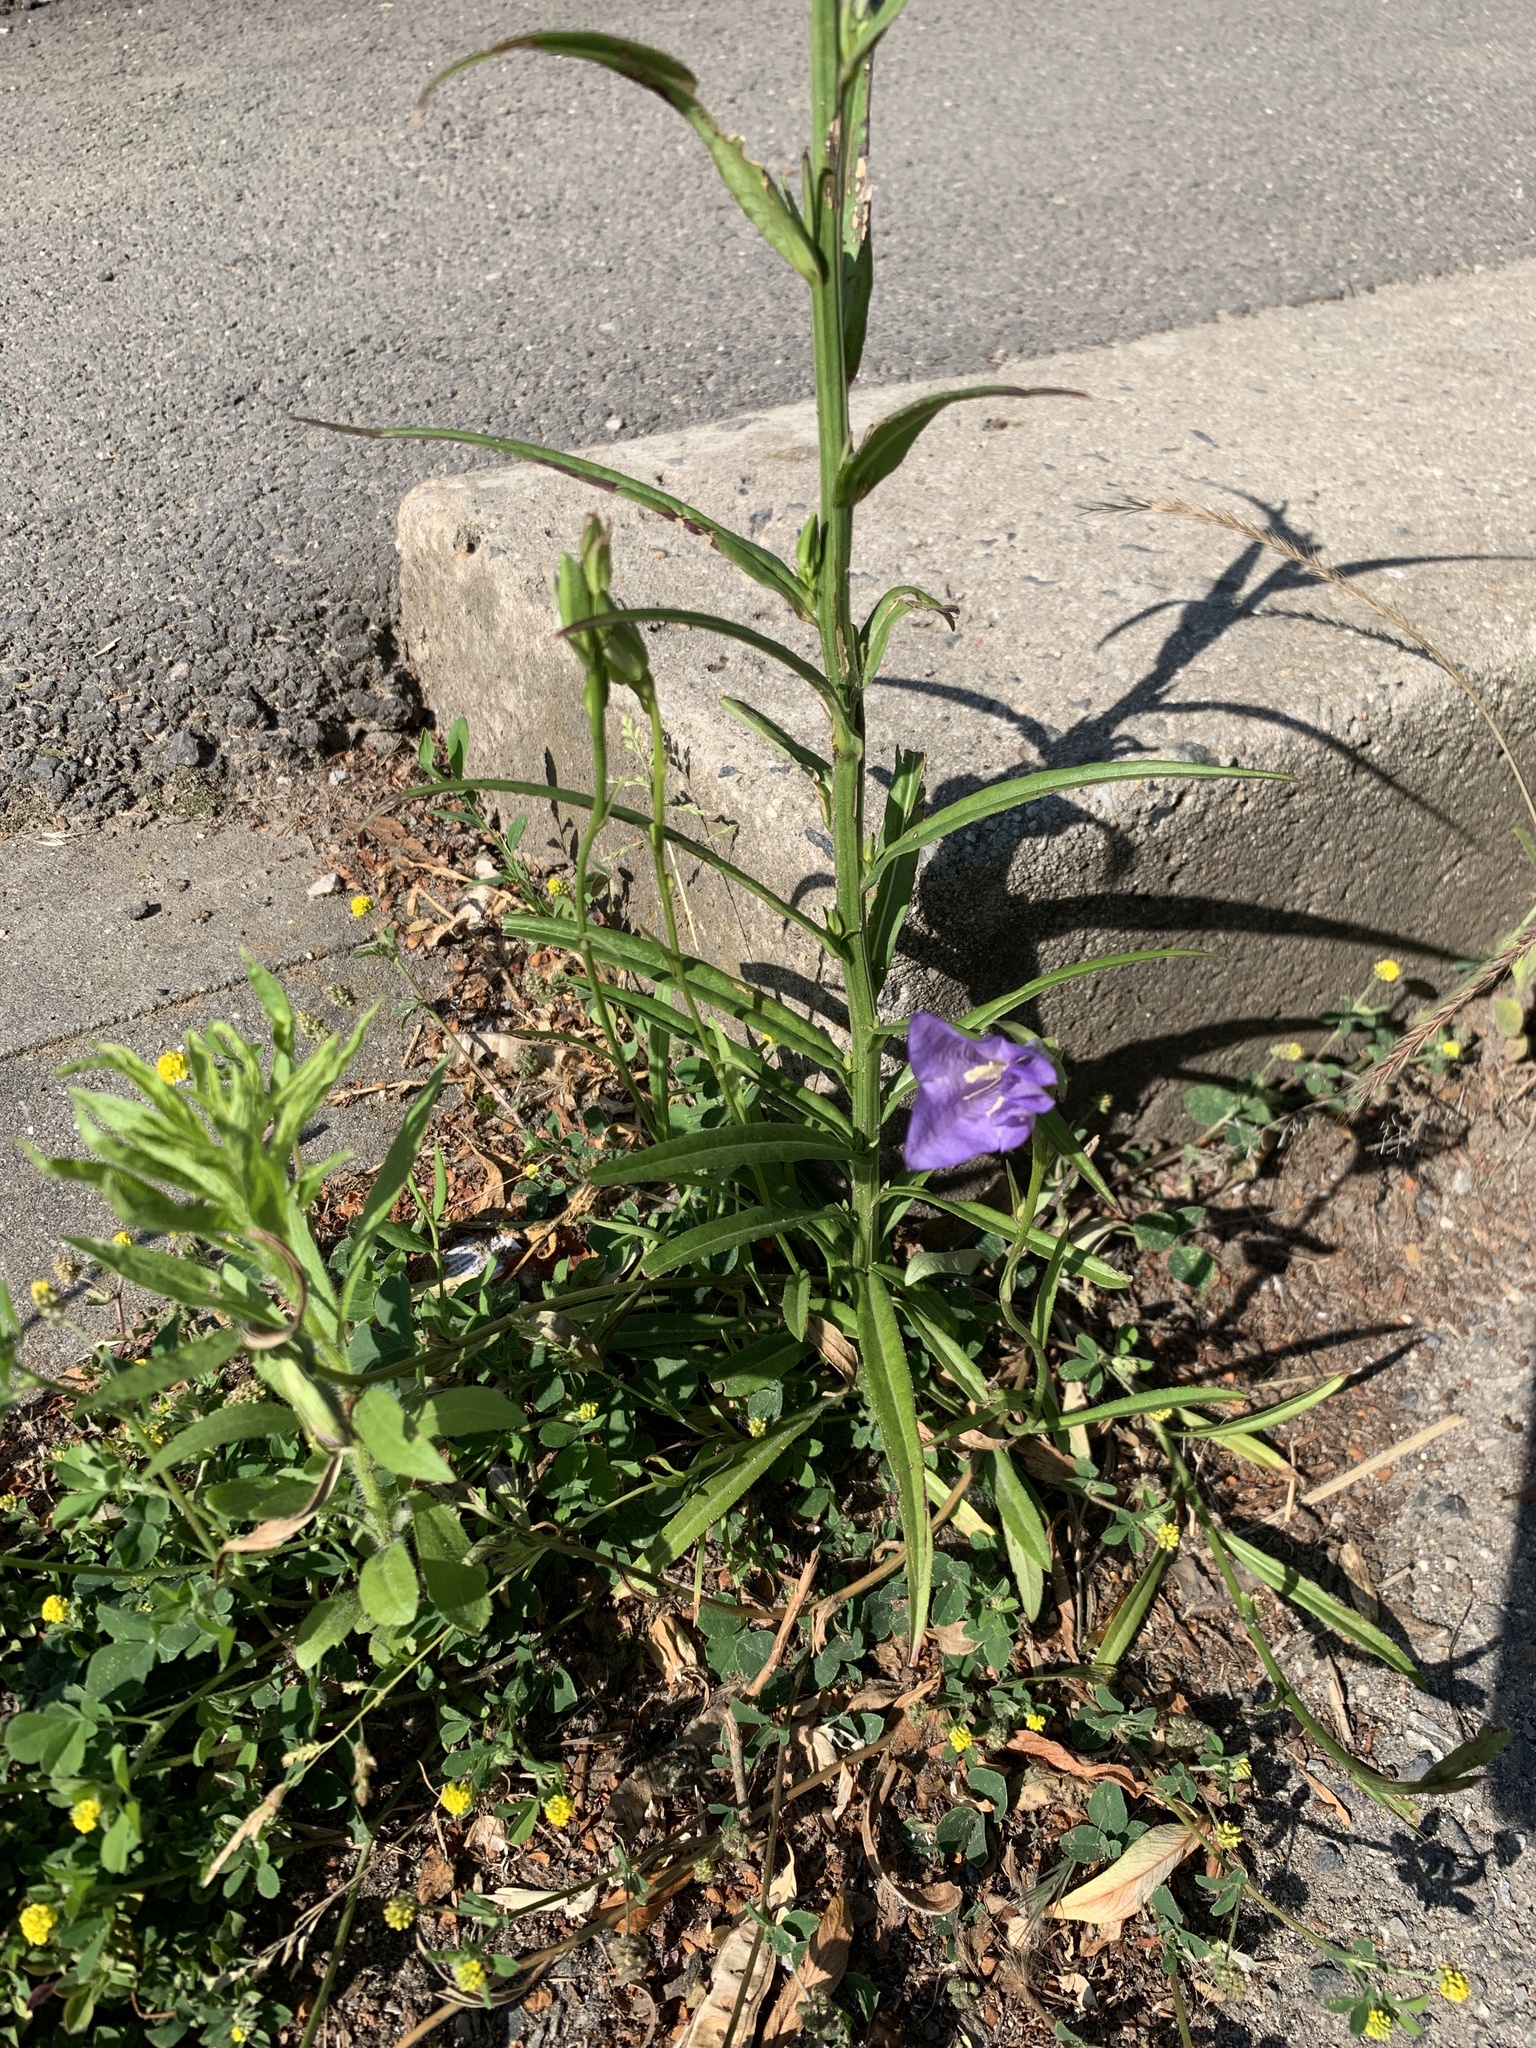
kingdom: Plantae
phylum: Tracheophyta
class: Magnoliopsida
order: Asterales
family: Campanulaceae
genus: Campanula
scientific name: Campanula persicifolia
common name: Peach-leaved bellflower
